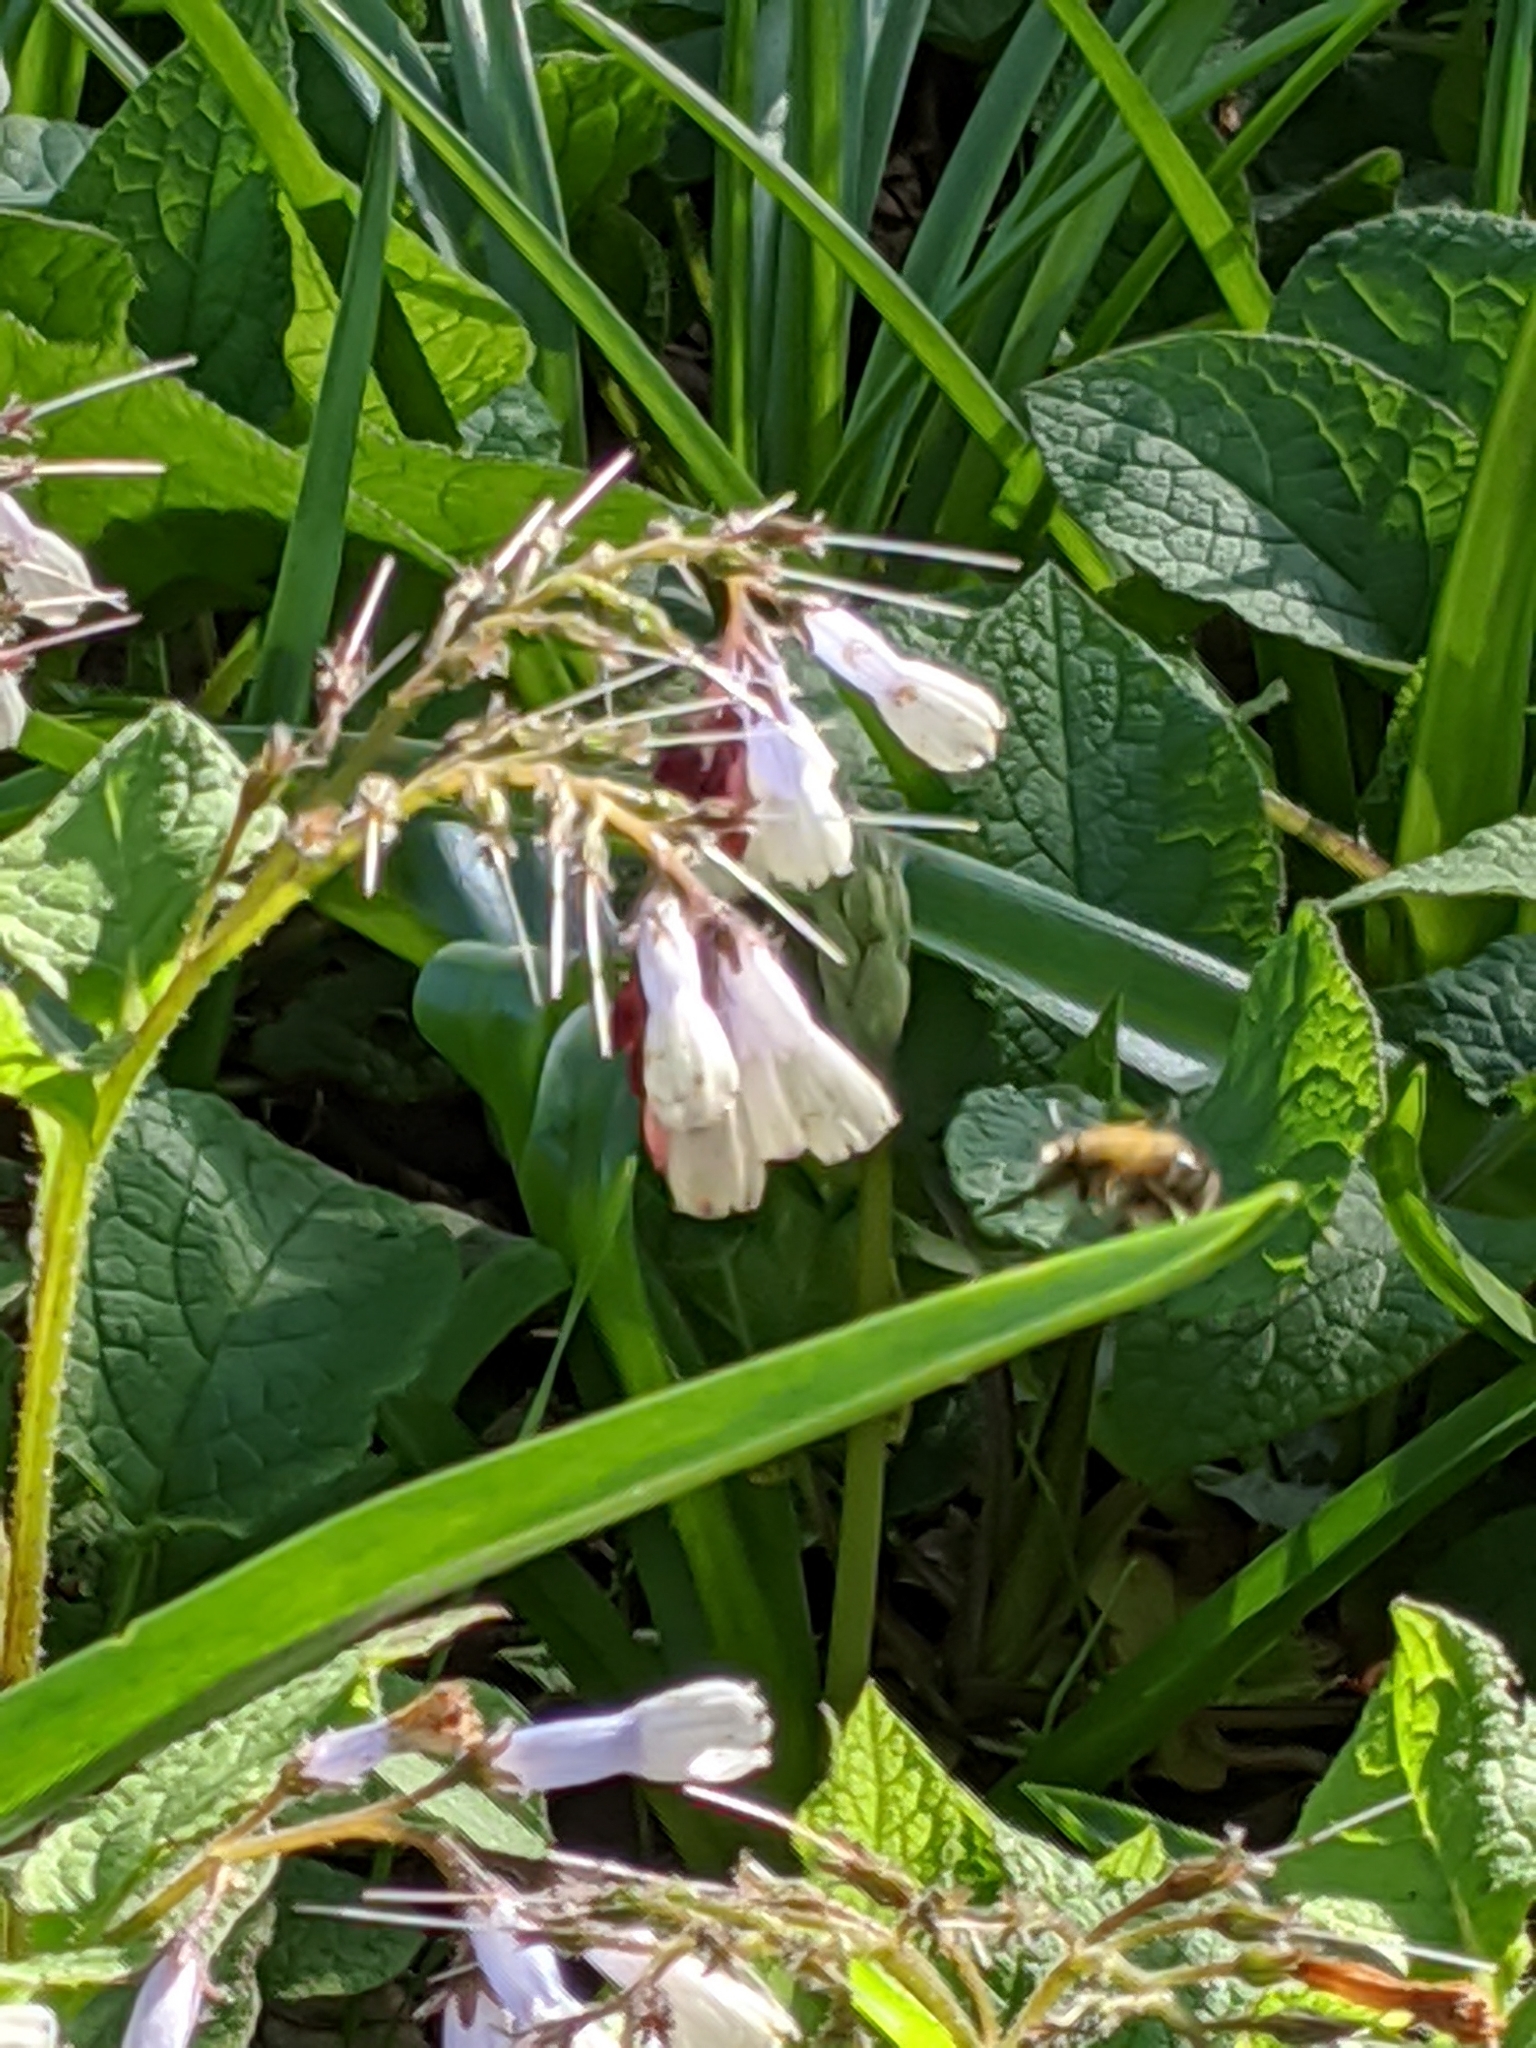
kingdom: Animalia
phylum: Arthropoda
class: Insecta
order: Hymenoptera
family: Apidae
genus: Anthophora
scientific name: Anthophora plumipes
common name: Hairy-footed flower bee
